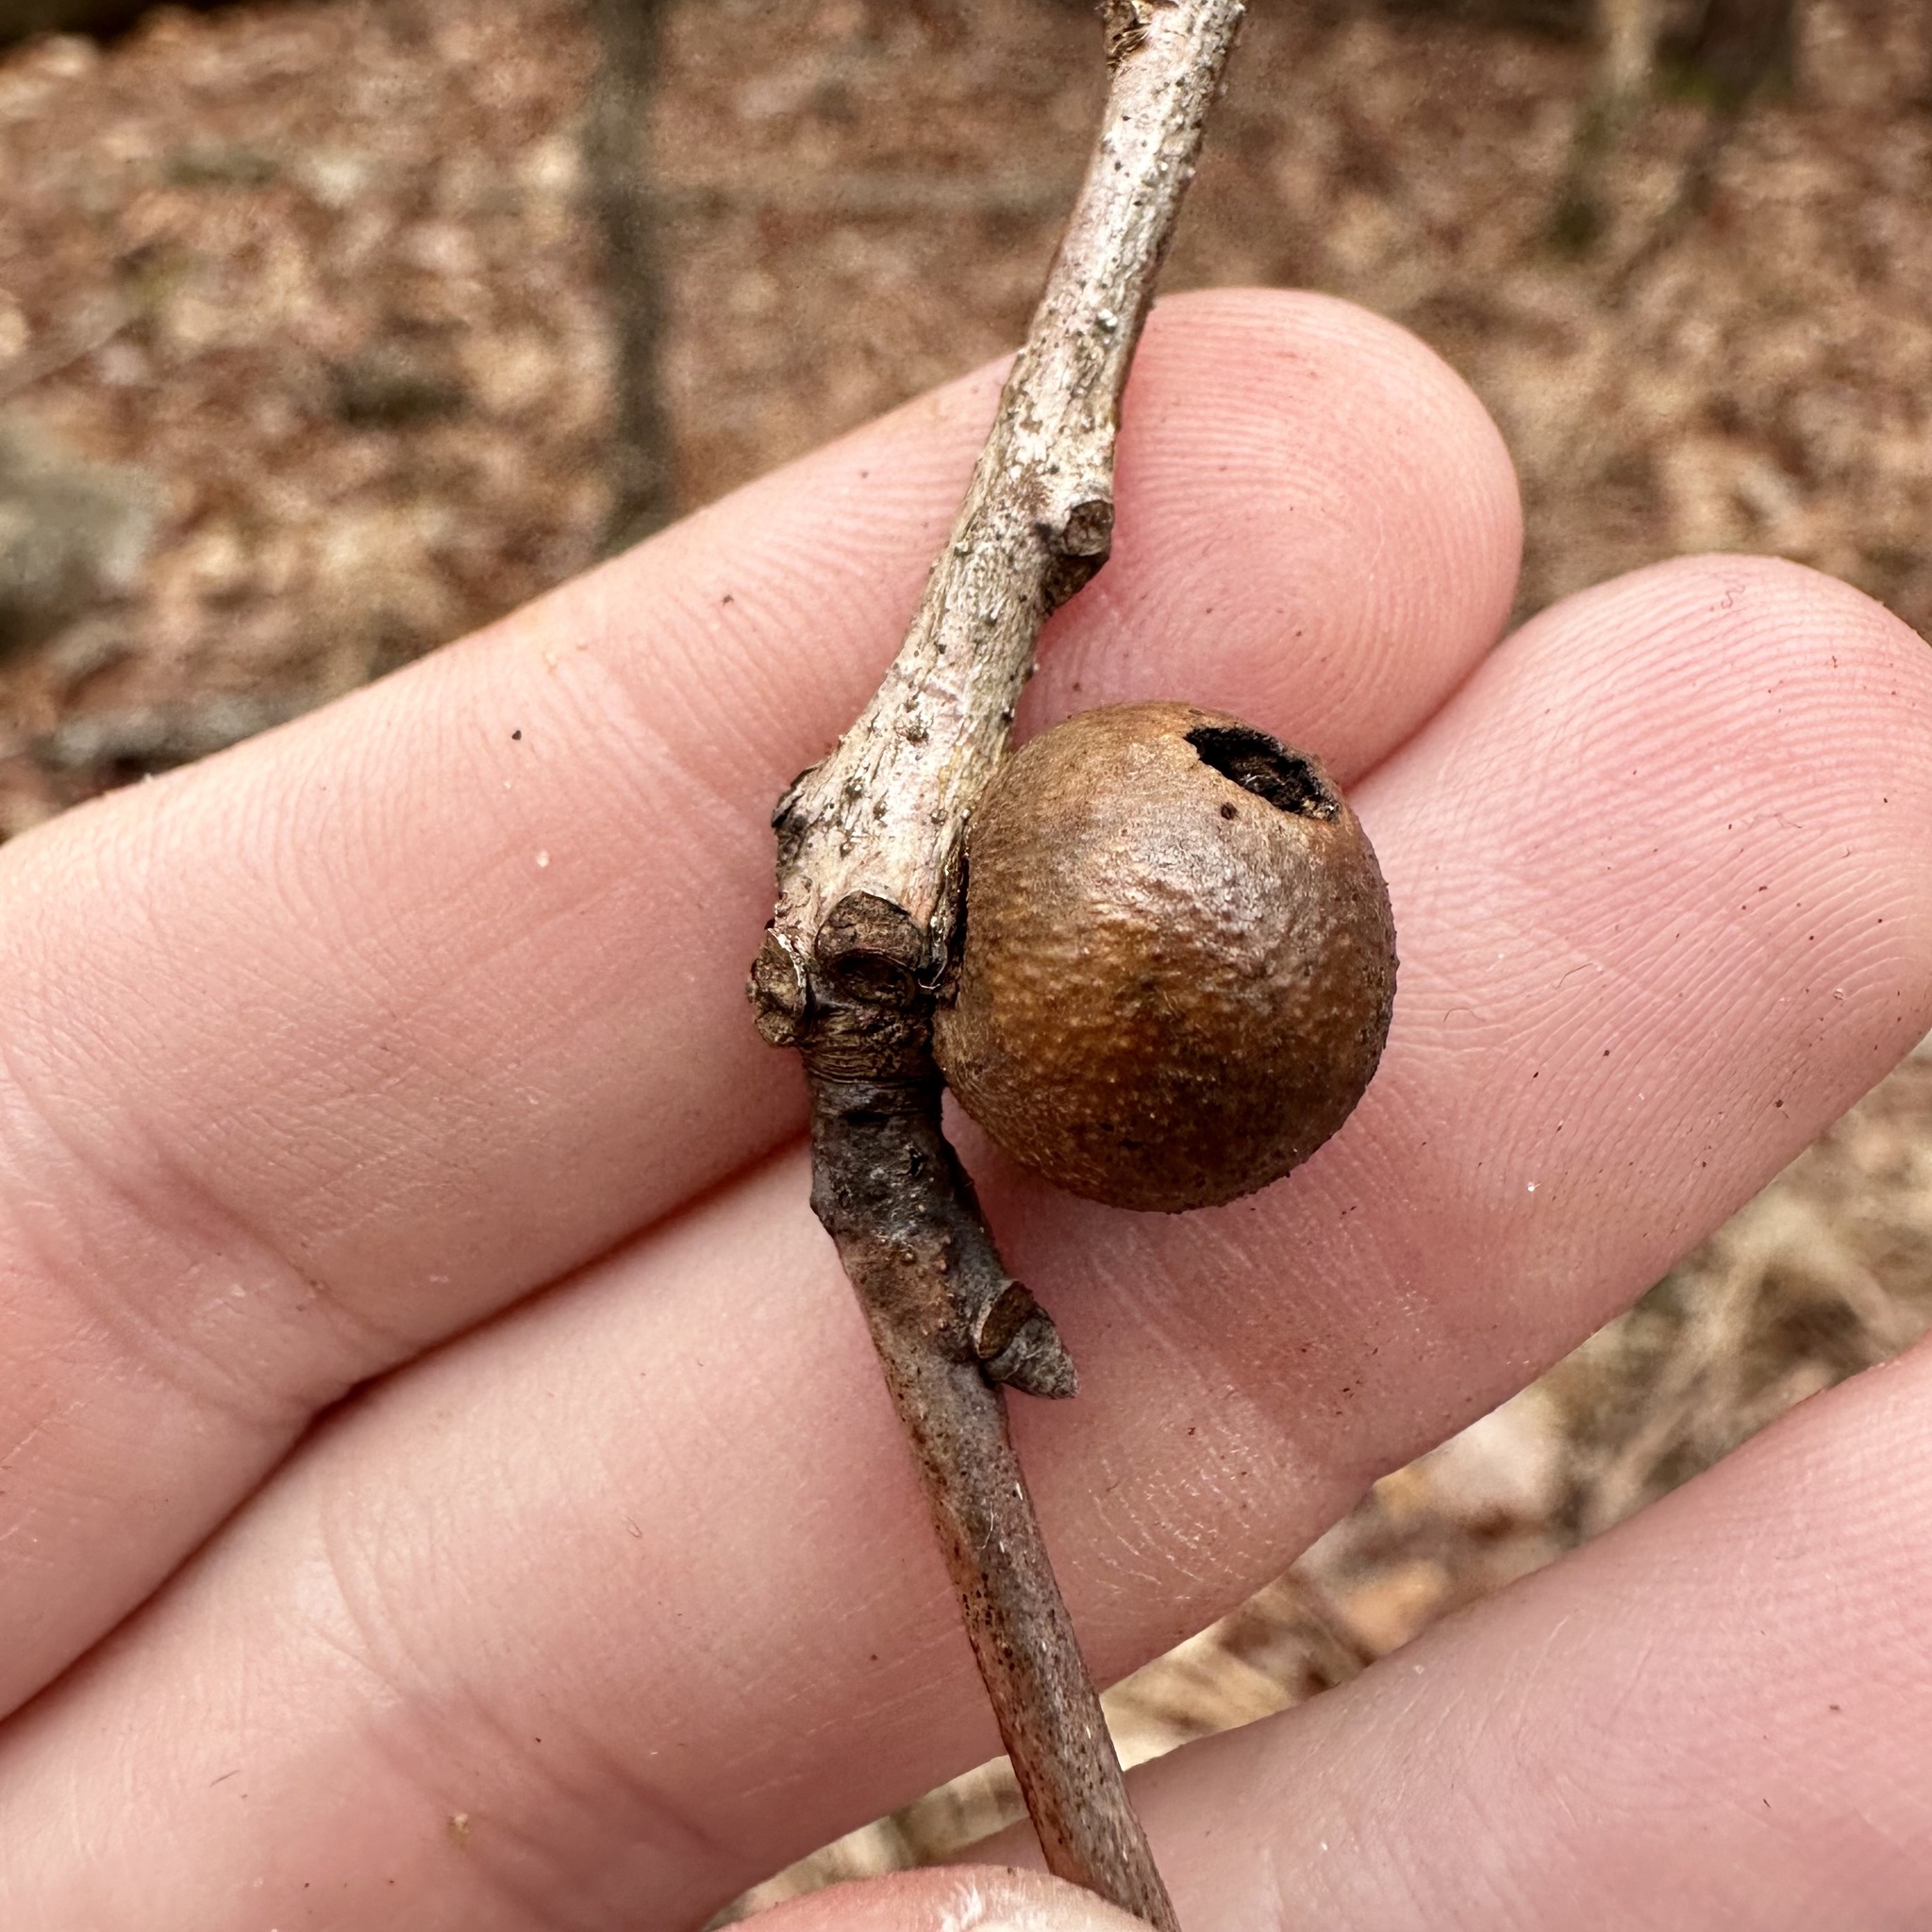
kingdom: Animalia
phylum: Arthropoda
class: Insecta
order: Hymenoptera
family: Cynipidae
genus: Disholcaspis
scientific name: Disholcaspis quercusglobulus
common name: Round bullet gall wasp
